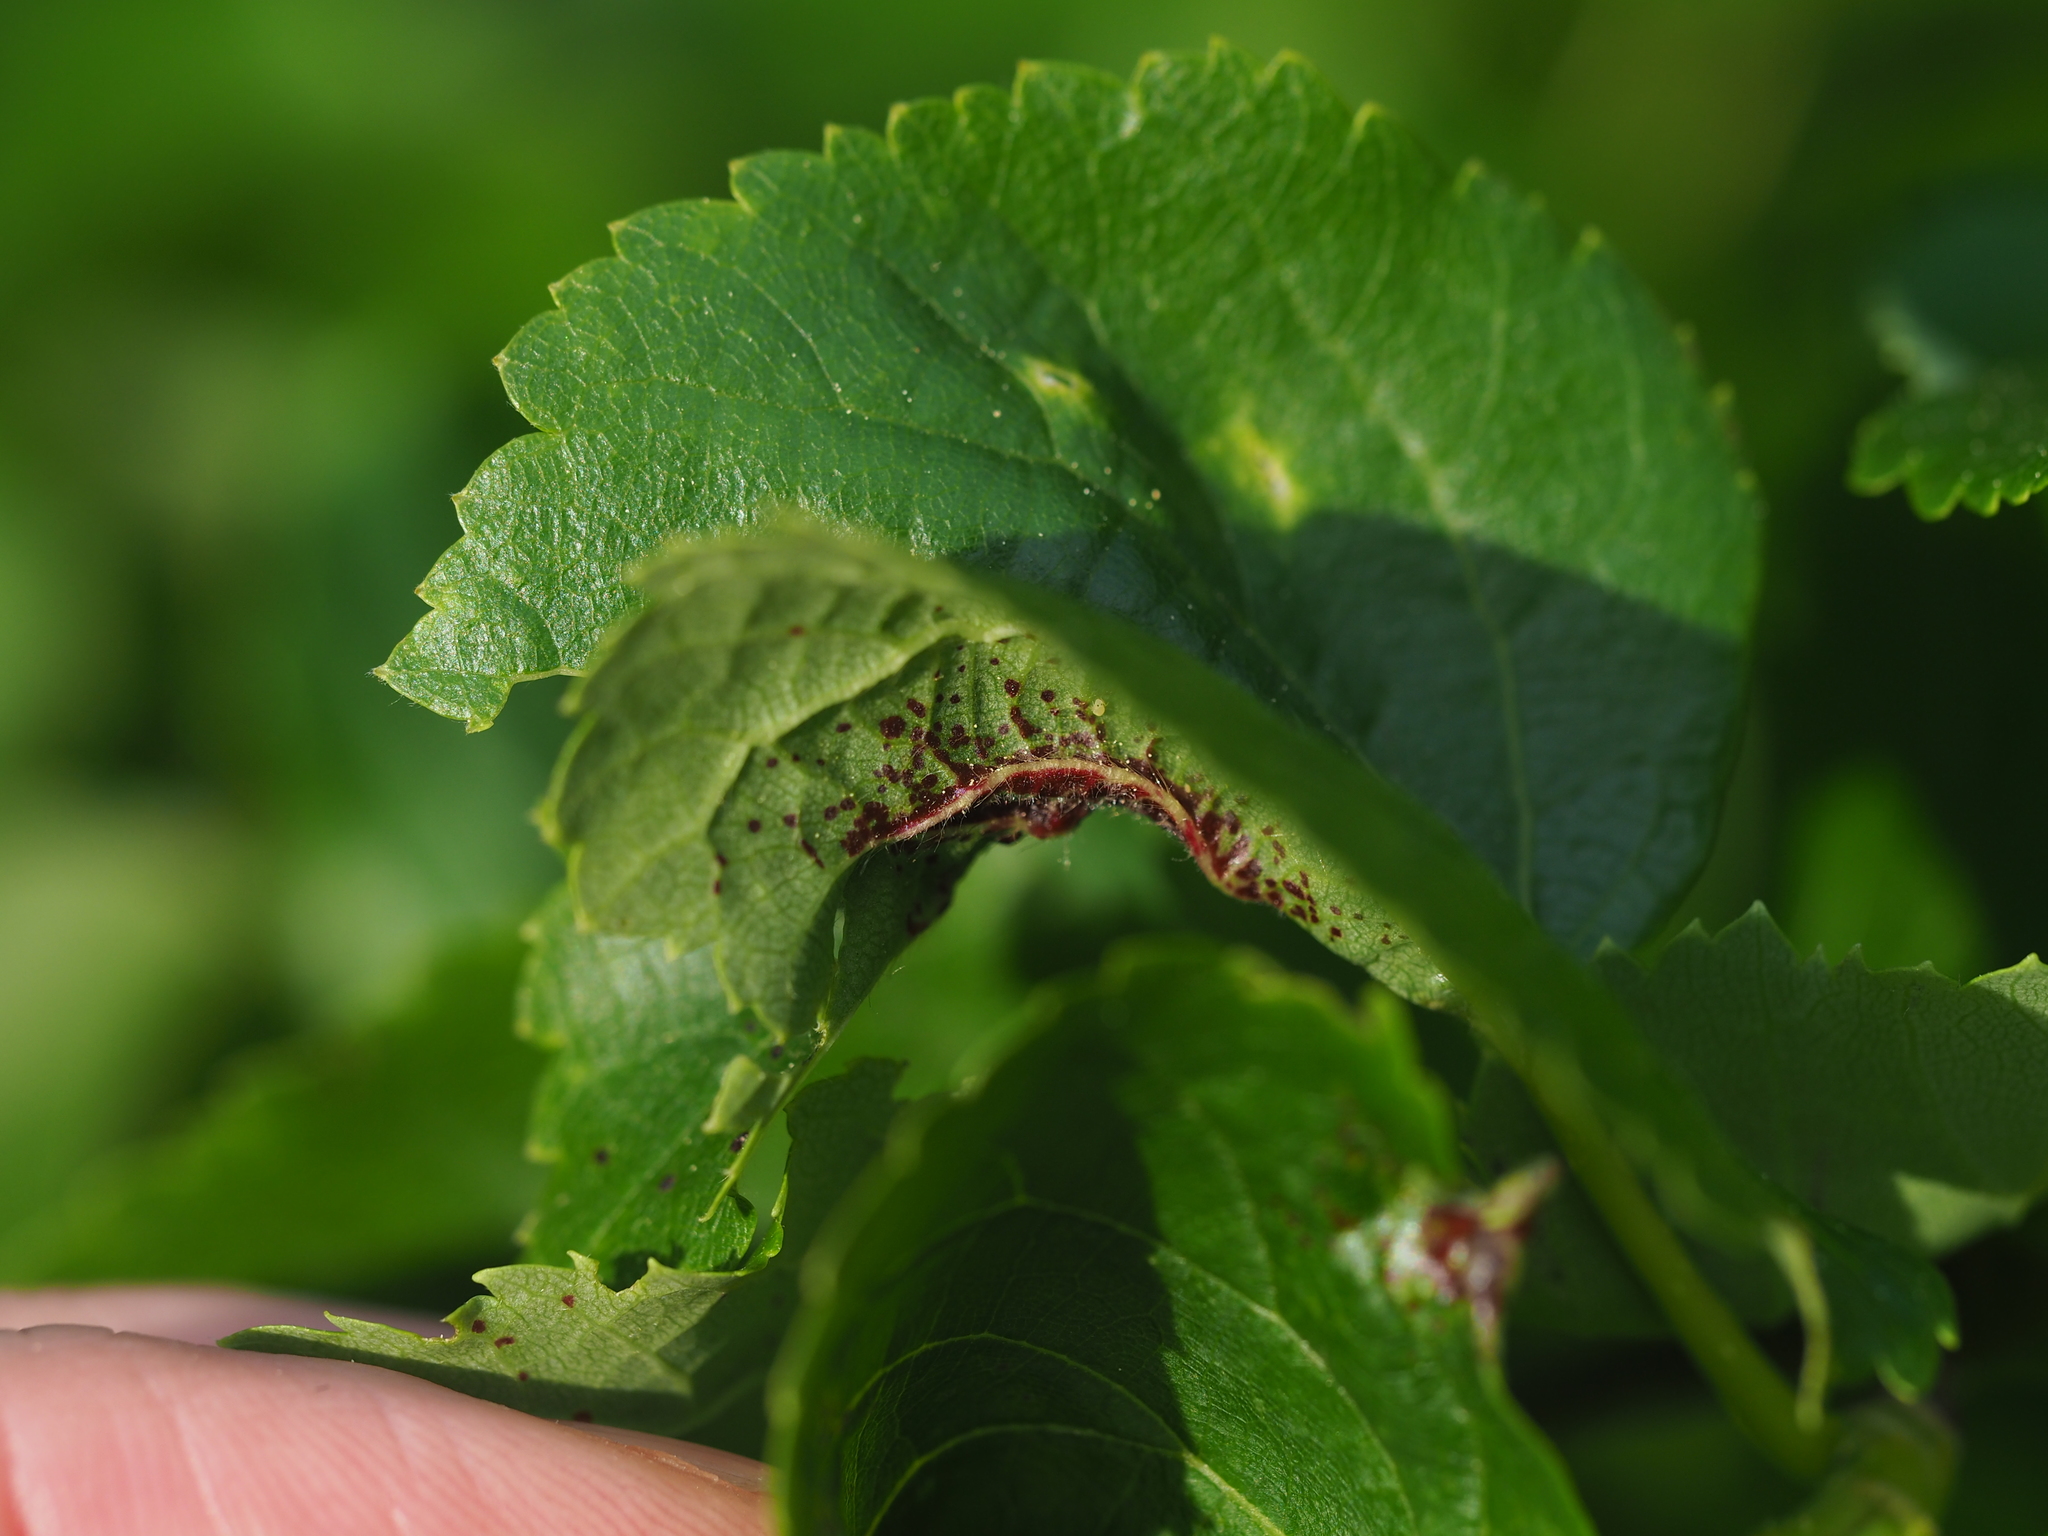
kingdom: Animalia
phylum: Arthropoda
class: Insecta
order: Diptera
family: Cecidomyiidae
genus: Dasineura
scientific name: Dasineura tiliae
